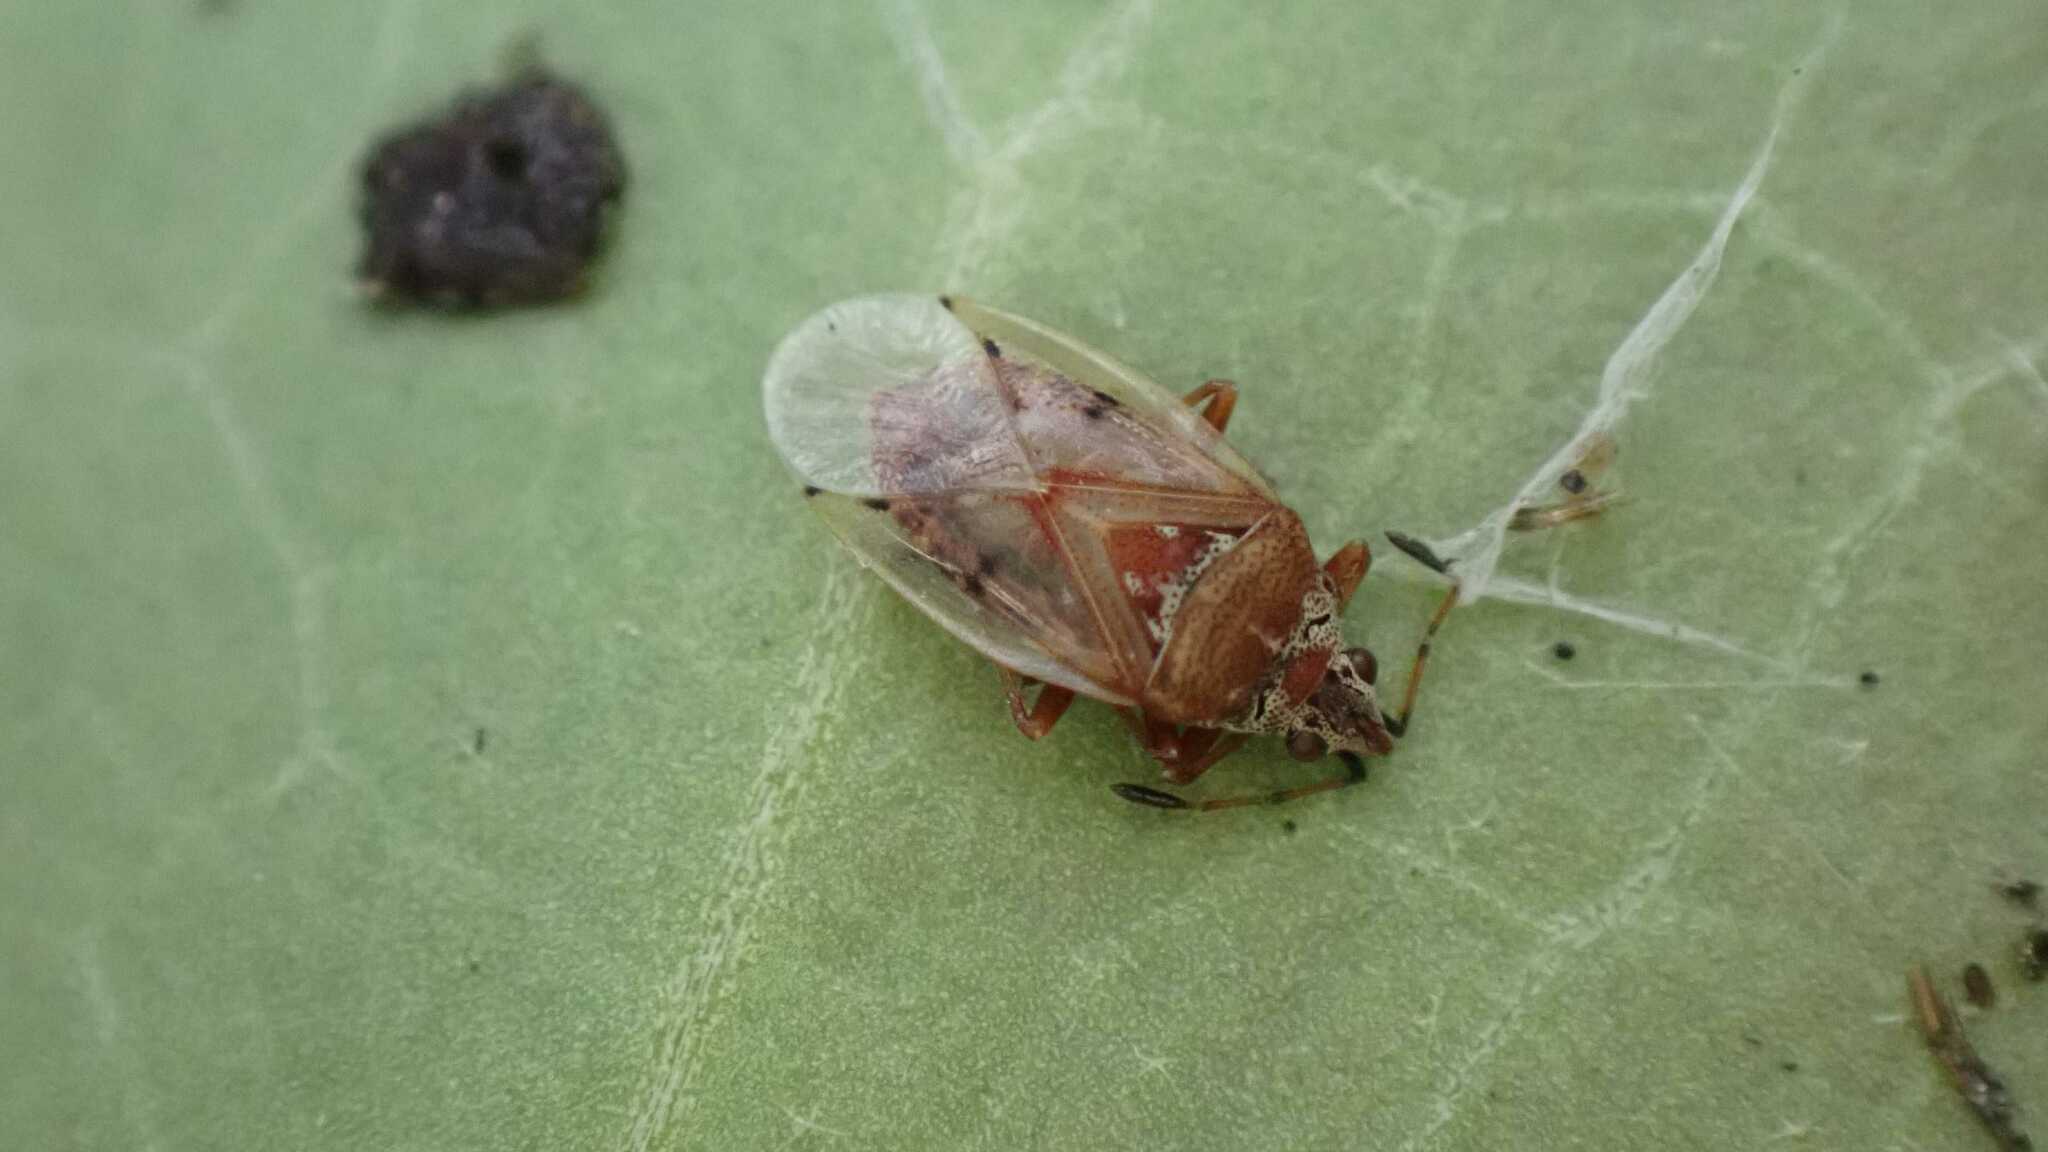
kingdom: Animalia
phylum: Arthropoda
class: Insecta
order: Hemiptera
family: Lygaeidae
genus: Kleidocerys
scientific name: Kleidocerys resedae
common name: Birch catkin bug
